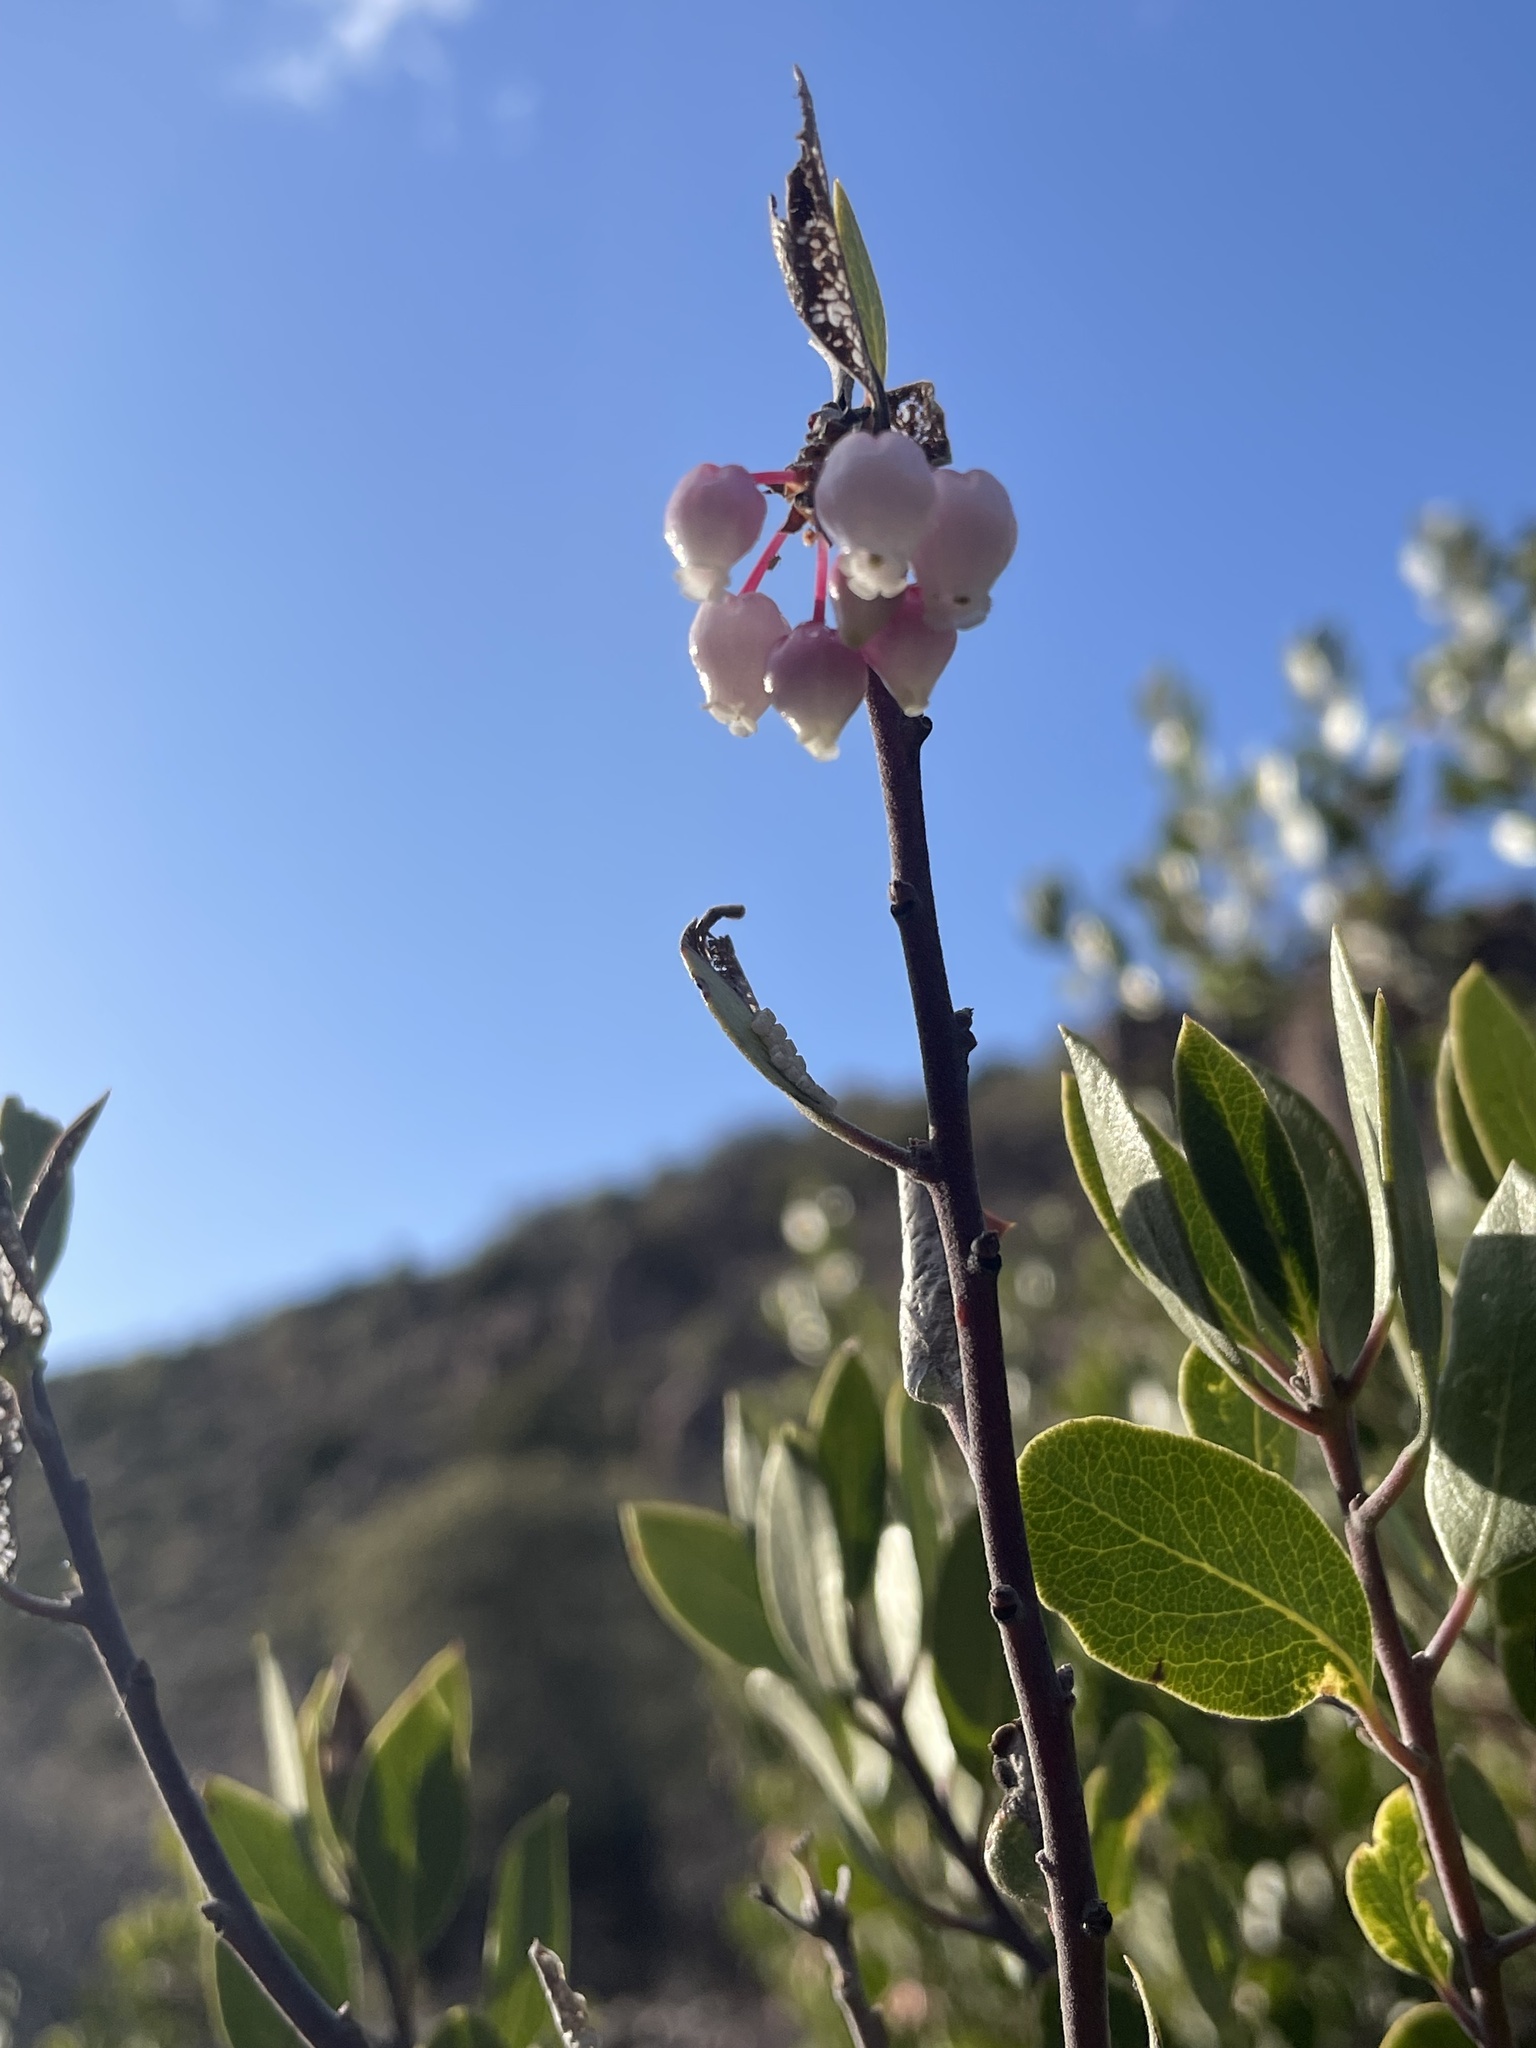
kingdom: Plantae
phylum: Tracheophyta
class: Magnoliopsida
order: Ericales
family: Ericaceae
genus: Arctostaphylos
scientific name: Arctostaphylos pungens
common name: Mexican manzanita
